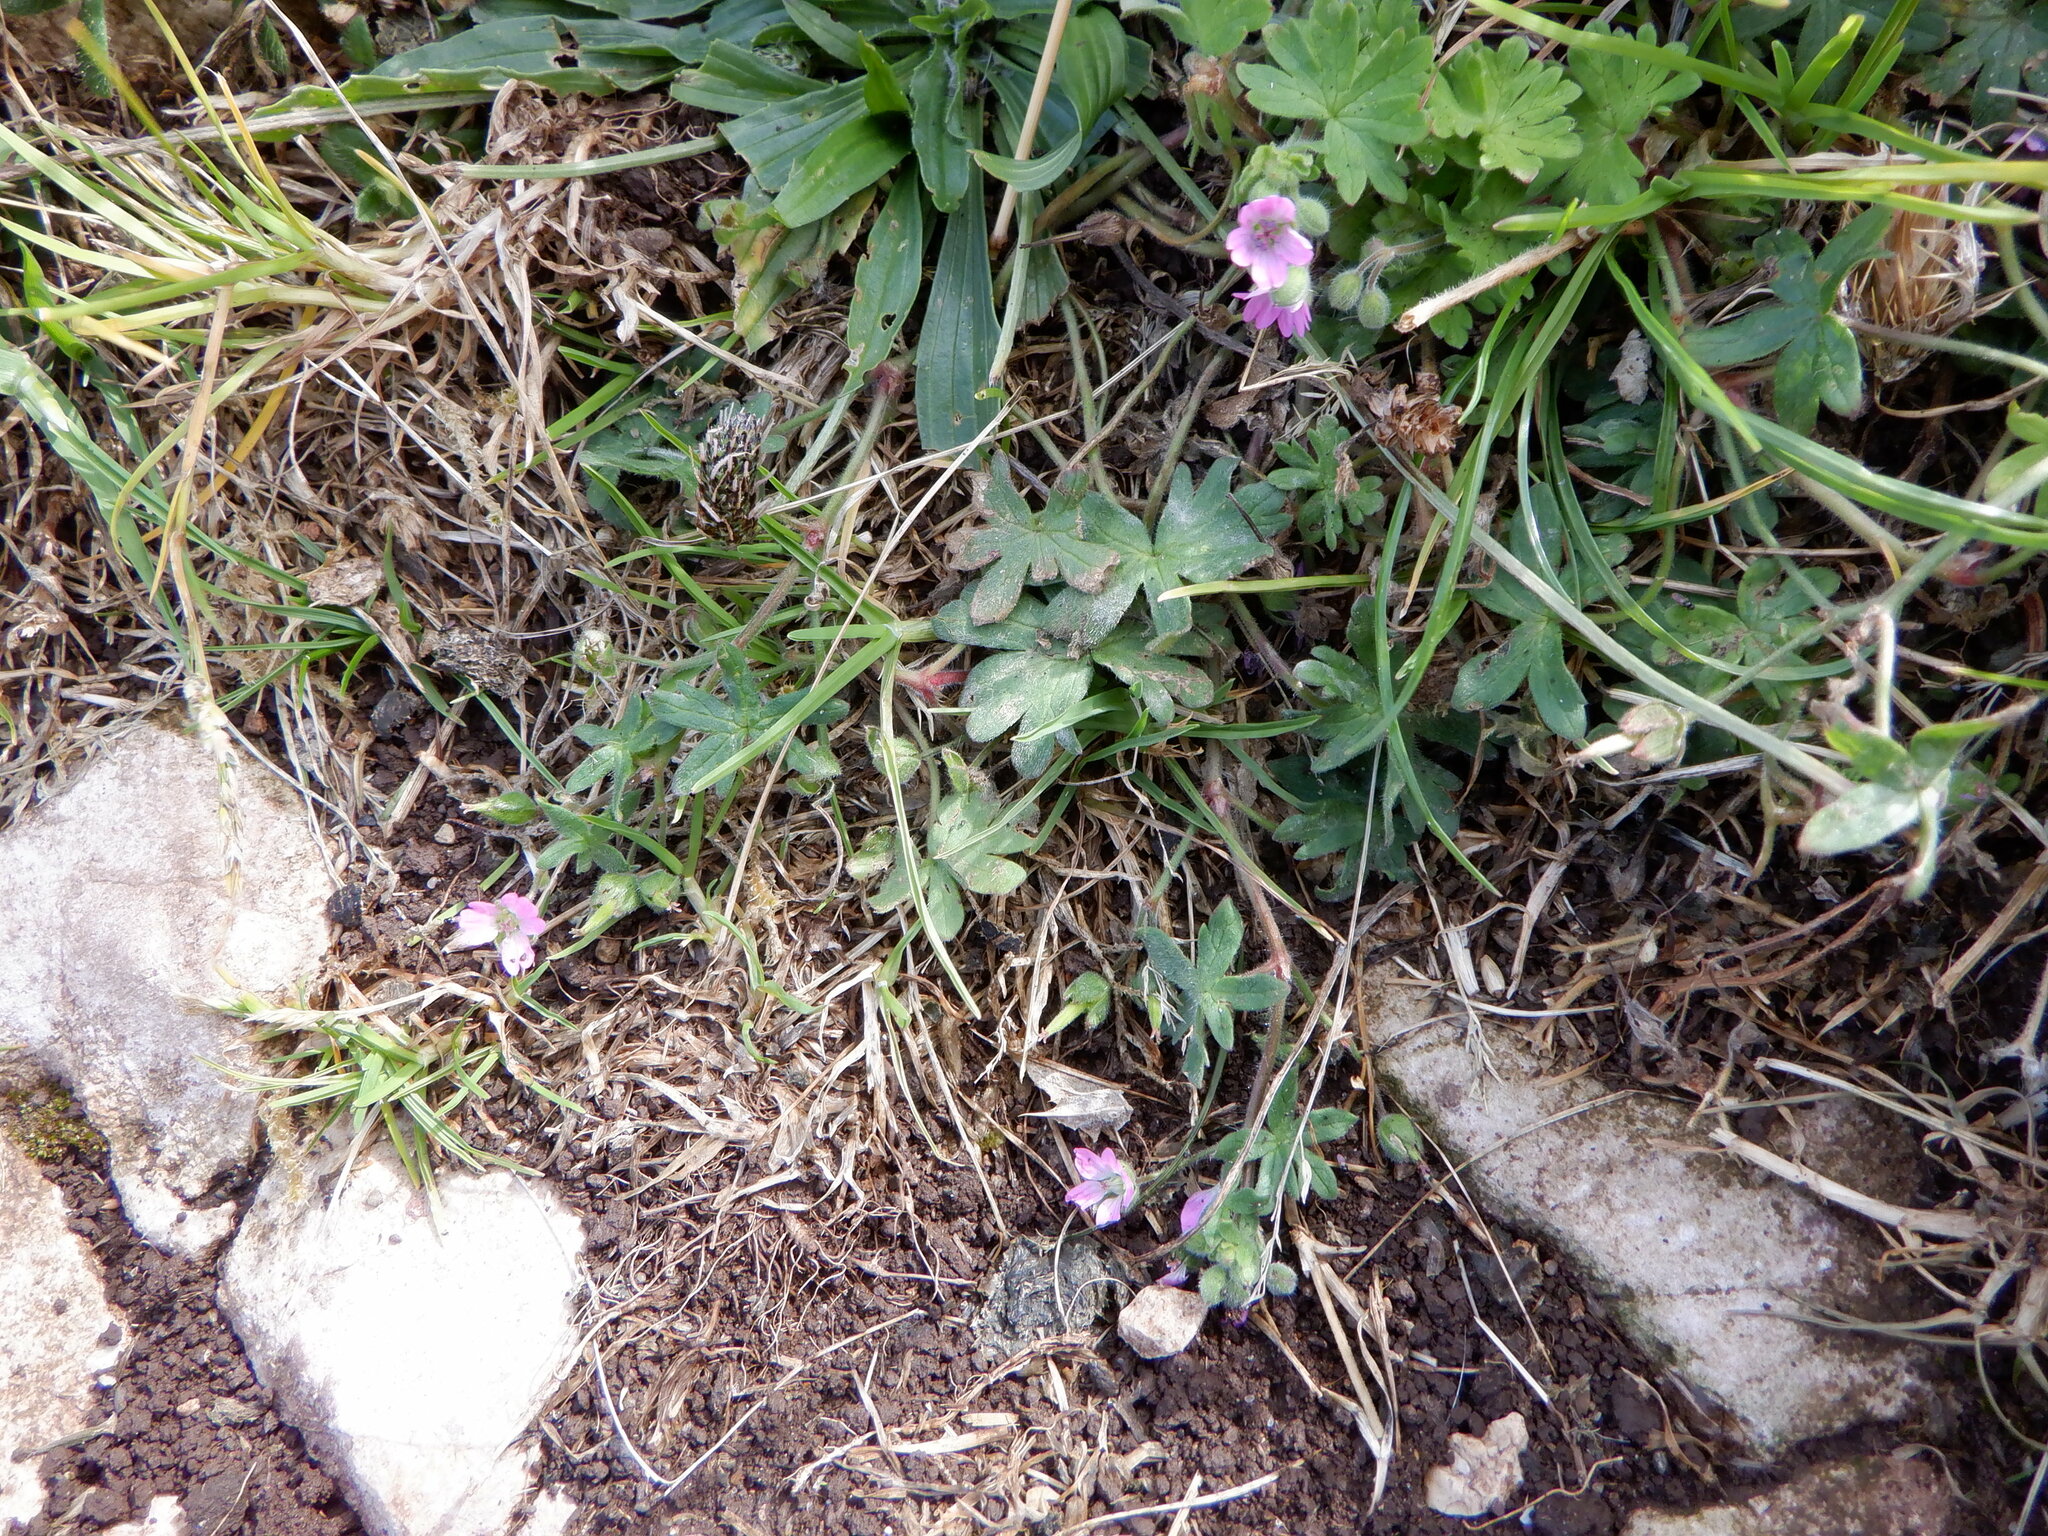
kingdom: Plantae
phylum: Tracheophyta
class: Magnoliopsida
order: Geraniales
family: Geraniaceae
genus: Geranium
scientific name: Geranium molle
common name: Dove's-foot crane's-bill
